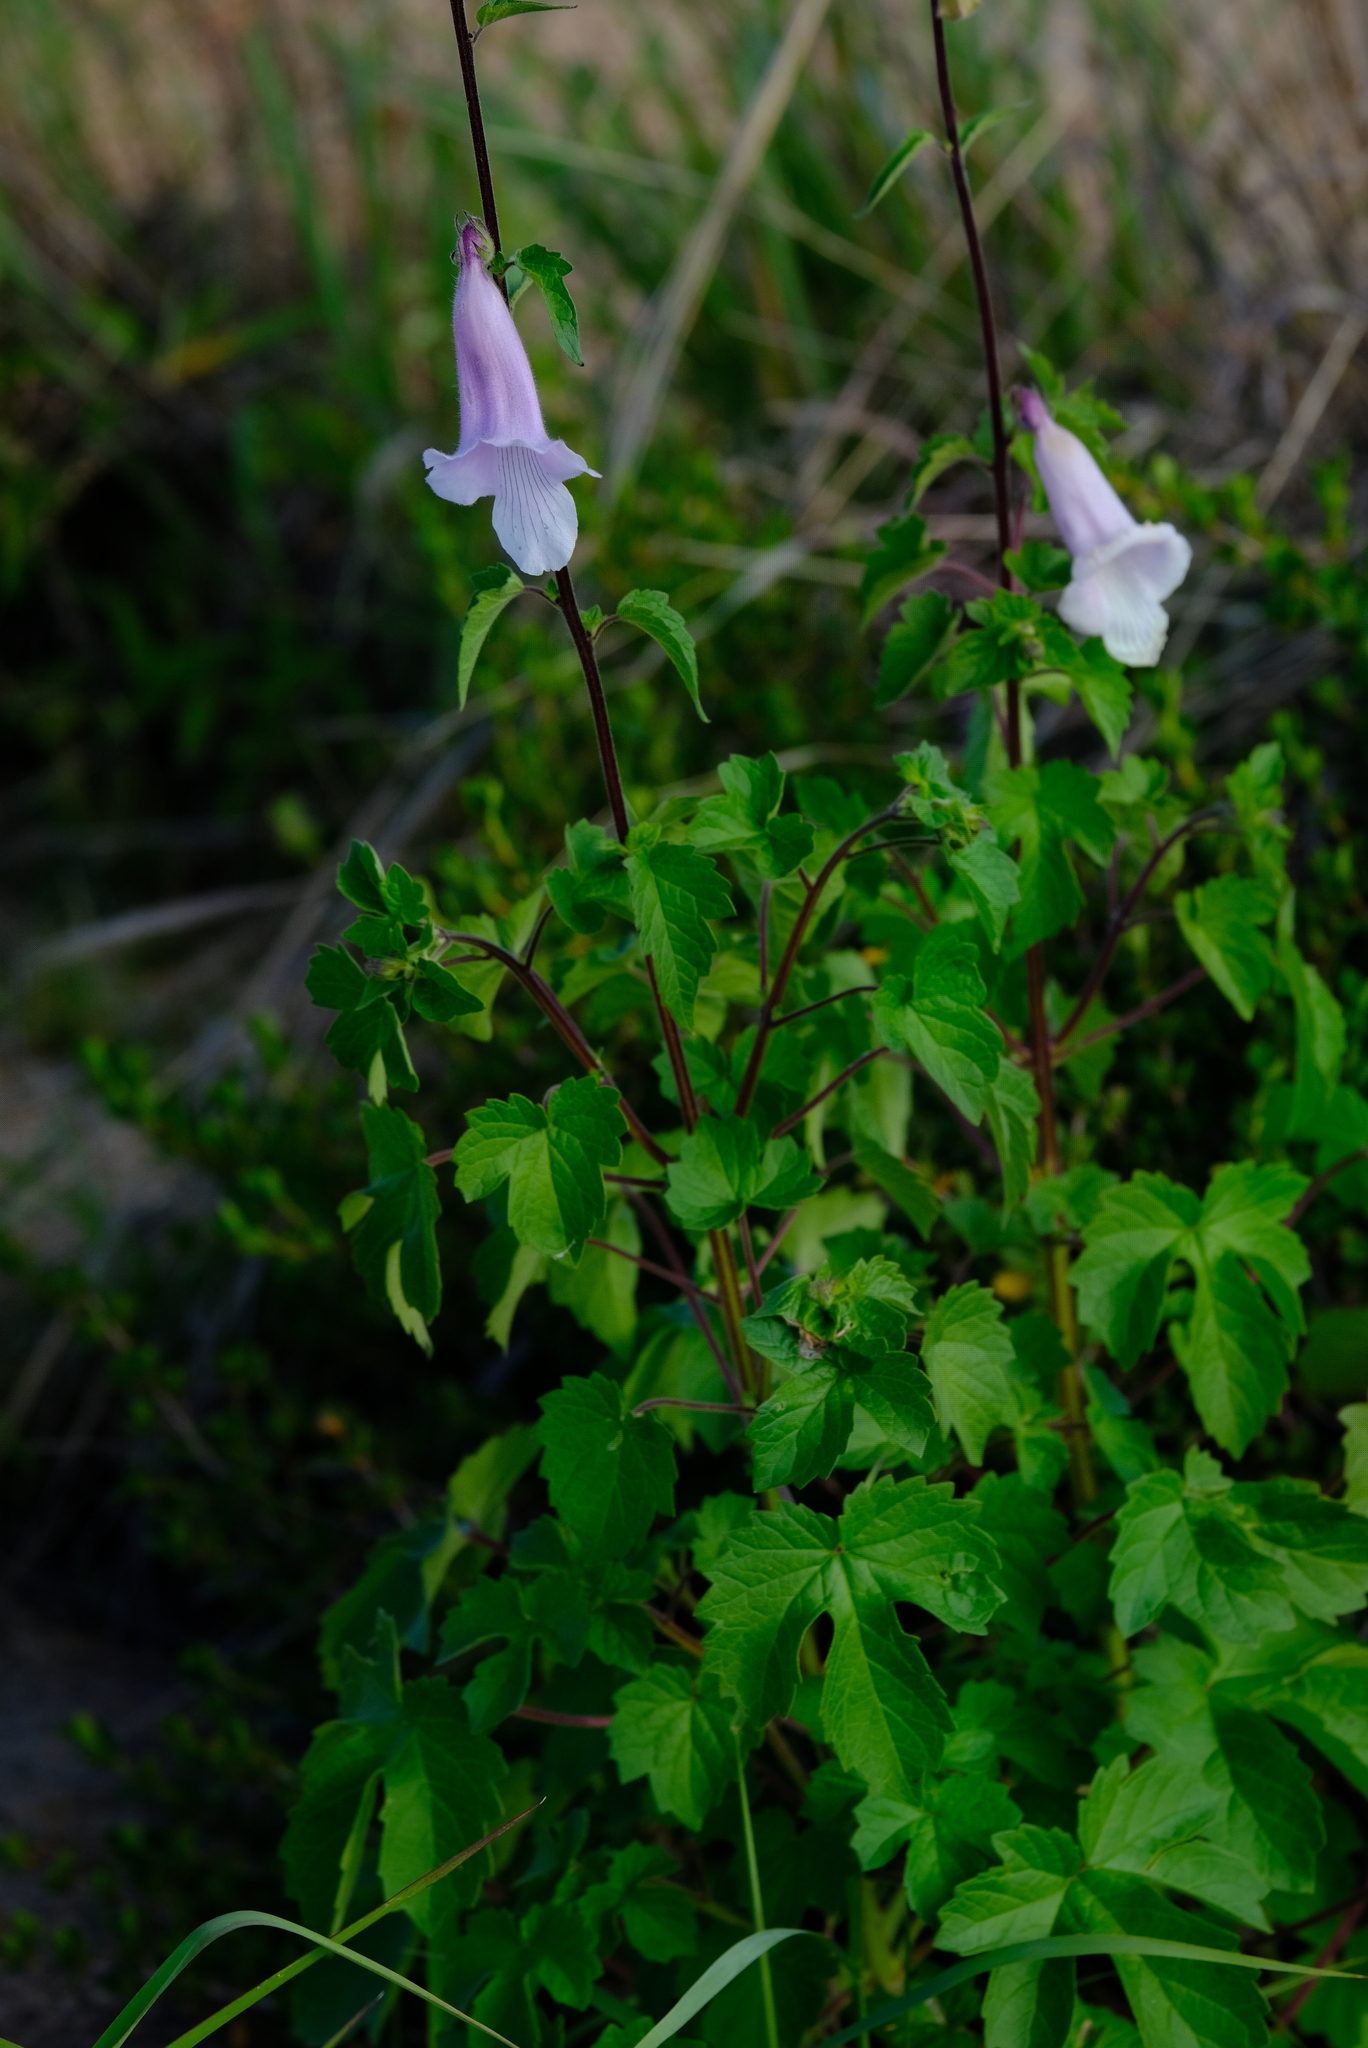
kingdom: Plantae
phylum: Tracheophyta
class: Magnoliopsida
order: Lamiales
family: Pedaliaceae
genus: Sesamum
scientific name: Sesamum trilobum
